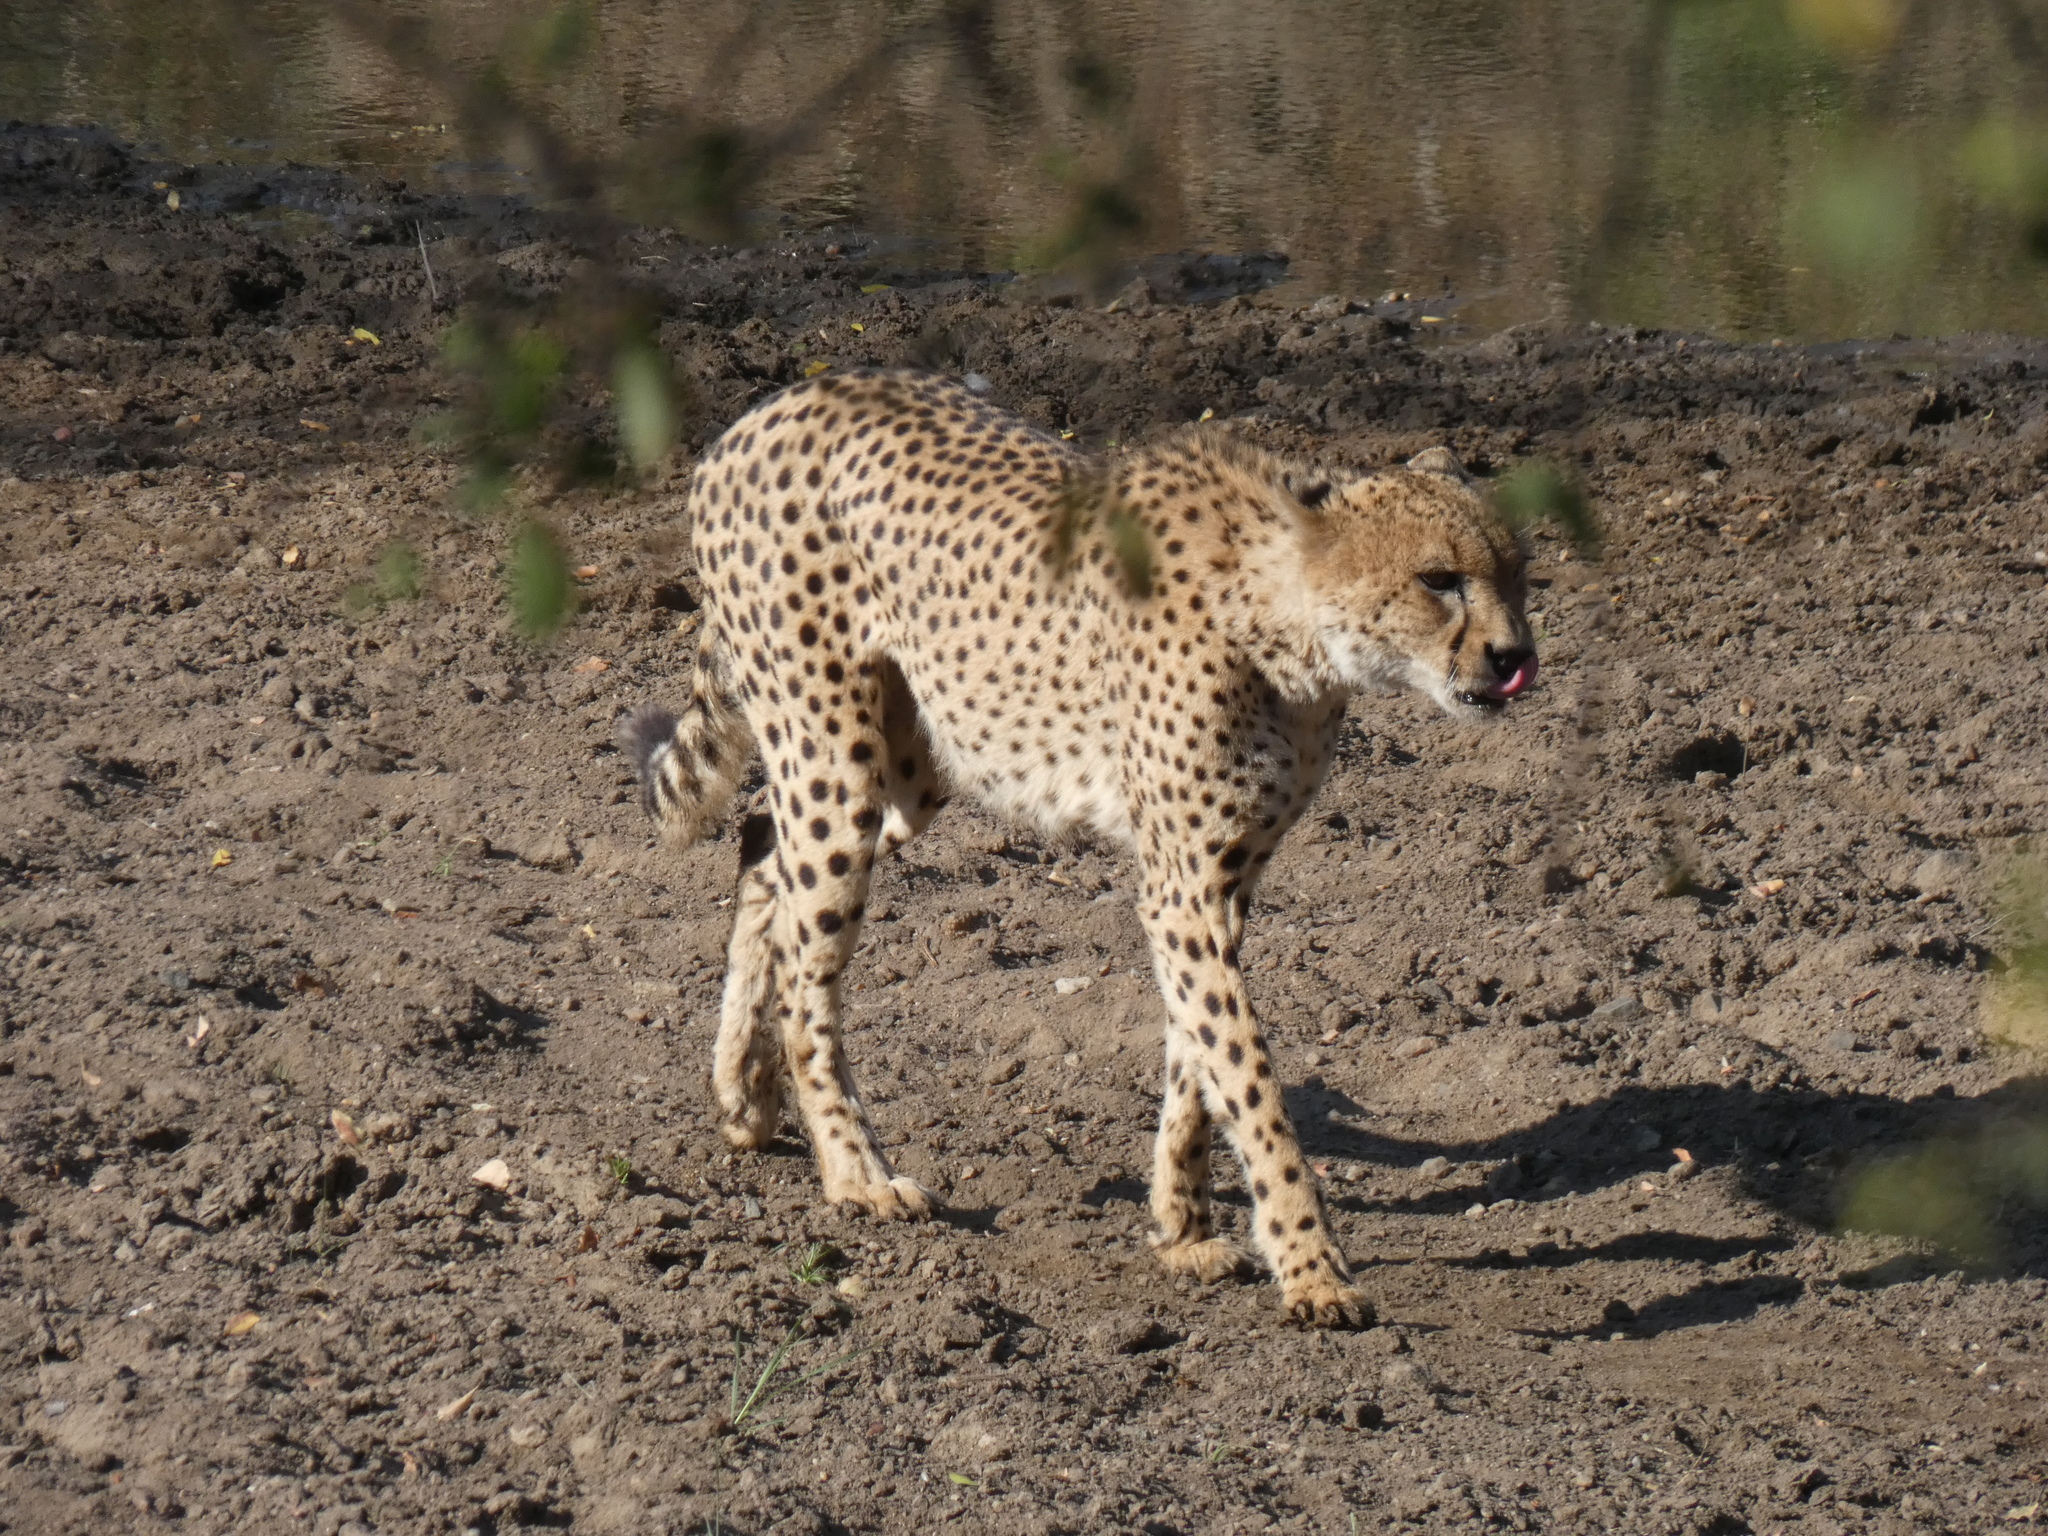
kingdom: Animalia
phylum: Chordata
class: Mammalia
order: Carnivora
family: Felidae
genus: Acinonyx
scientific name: Acinonyx jubatus
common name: Cheetah
